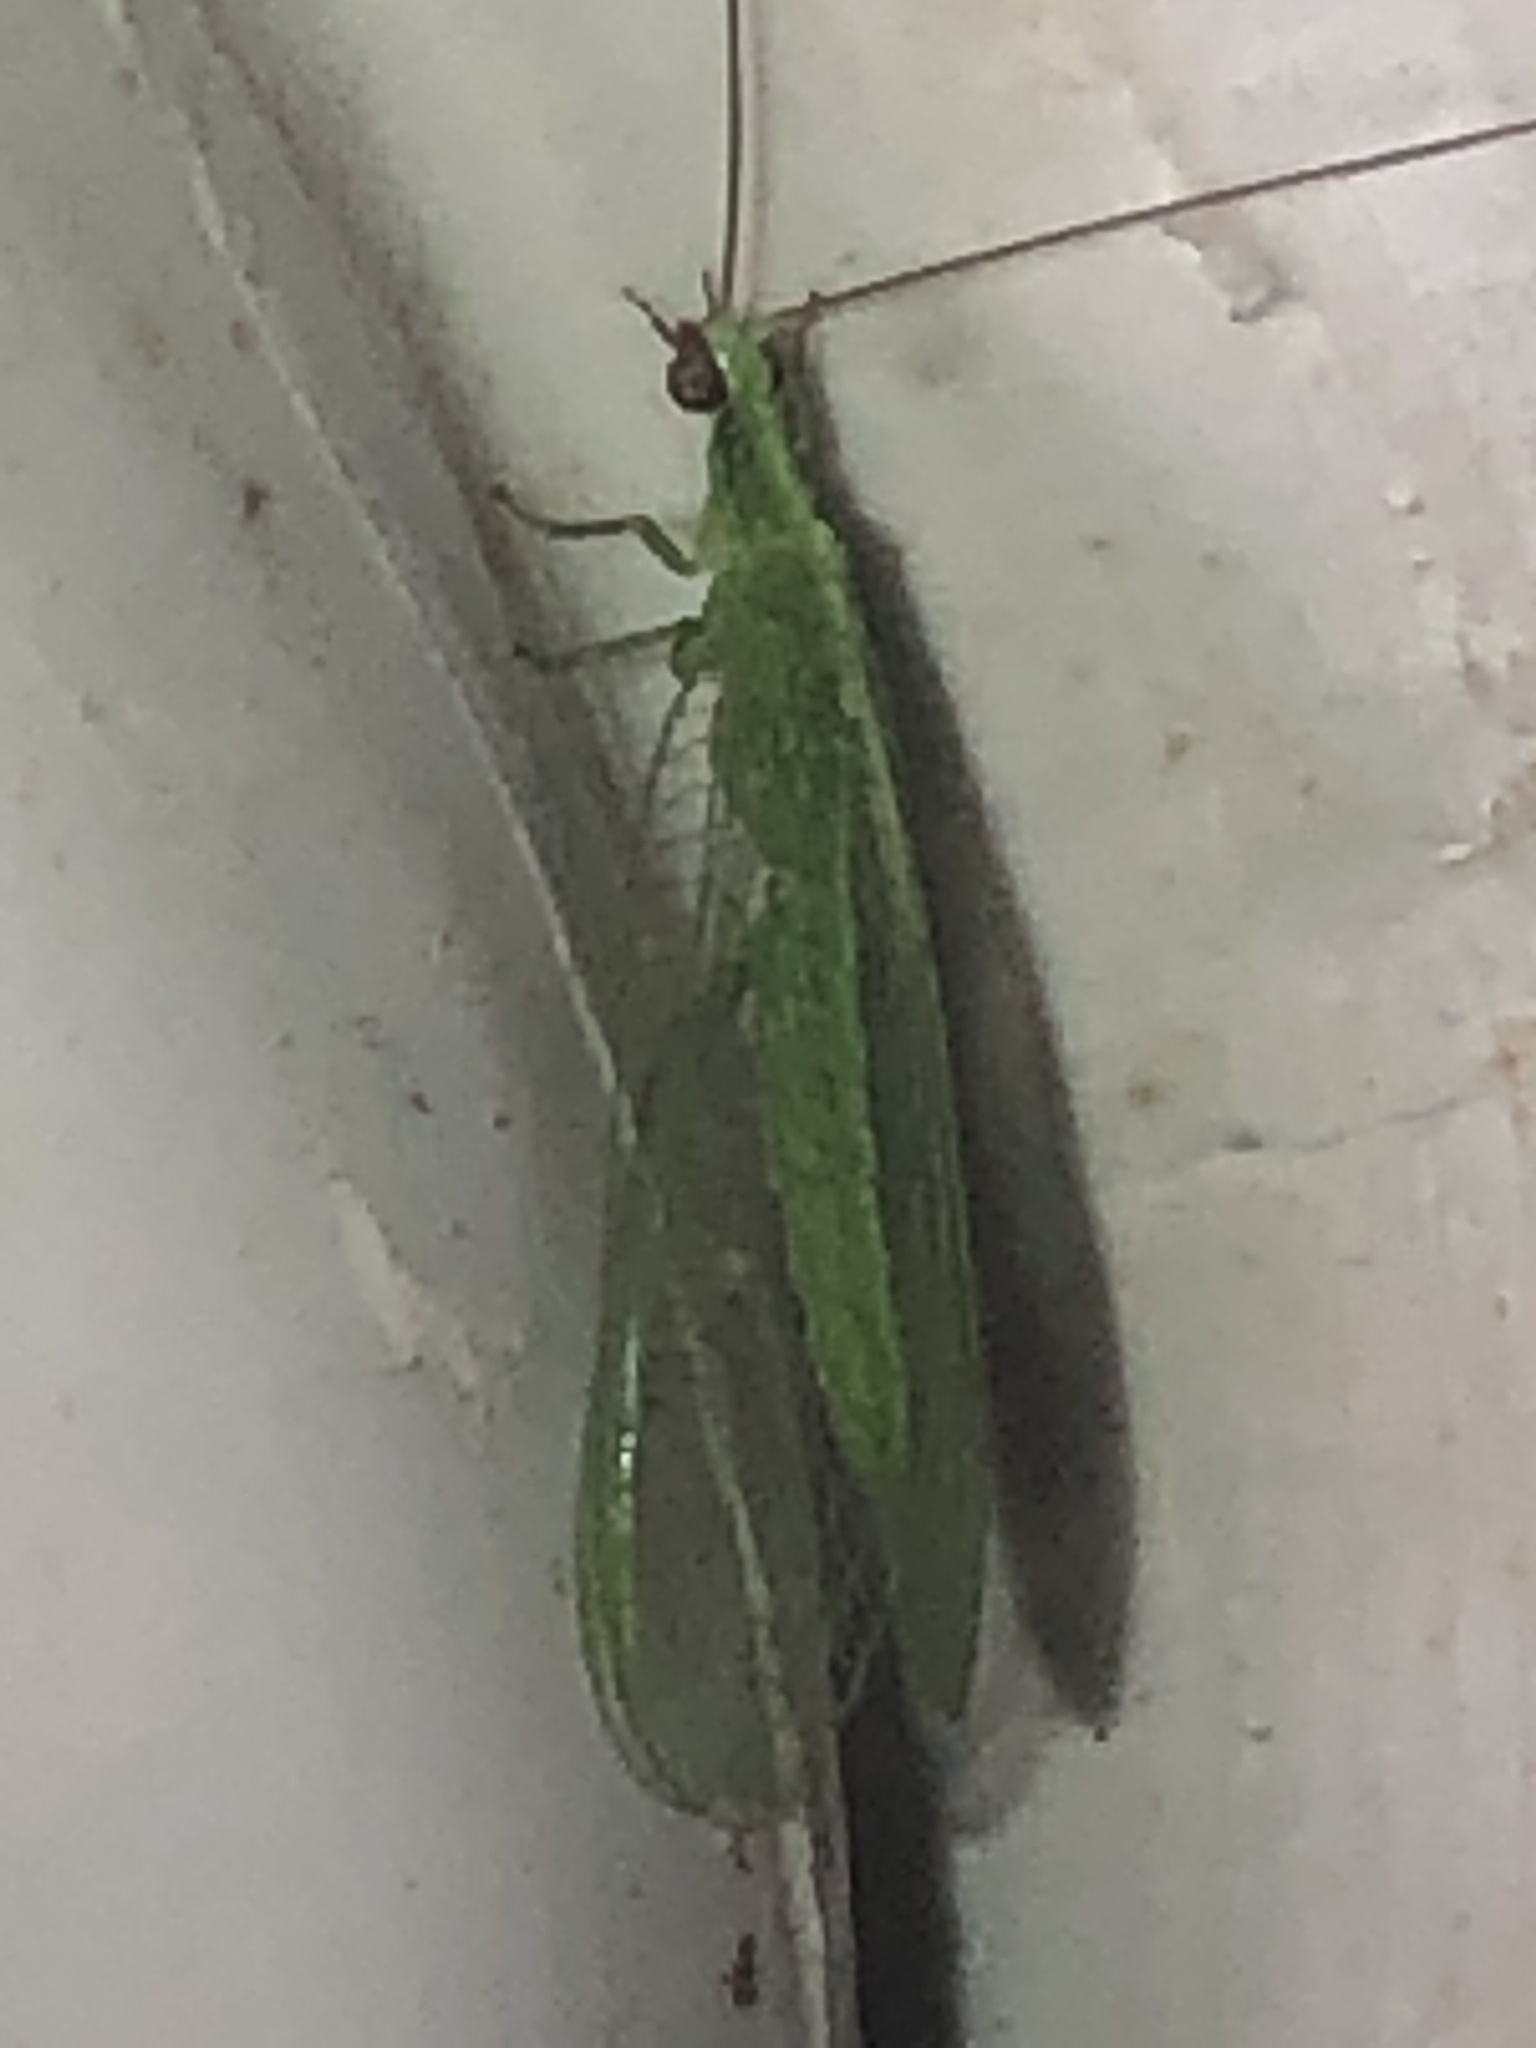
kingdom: Animalia
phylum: Arthropoda
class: Insecta
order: Neuroptera
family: Chrysopidae
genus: Chrysoperla
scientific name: Chrysoperla rufilabris
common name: Red-lipped green lacewing
